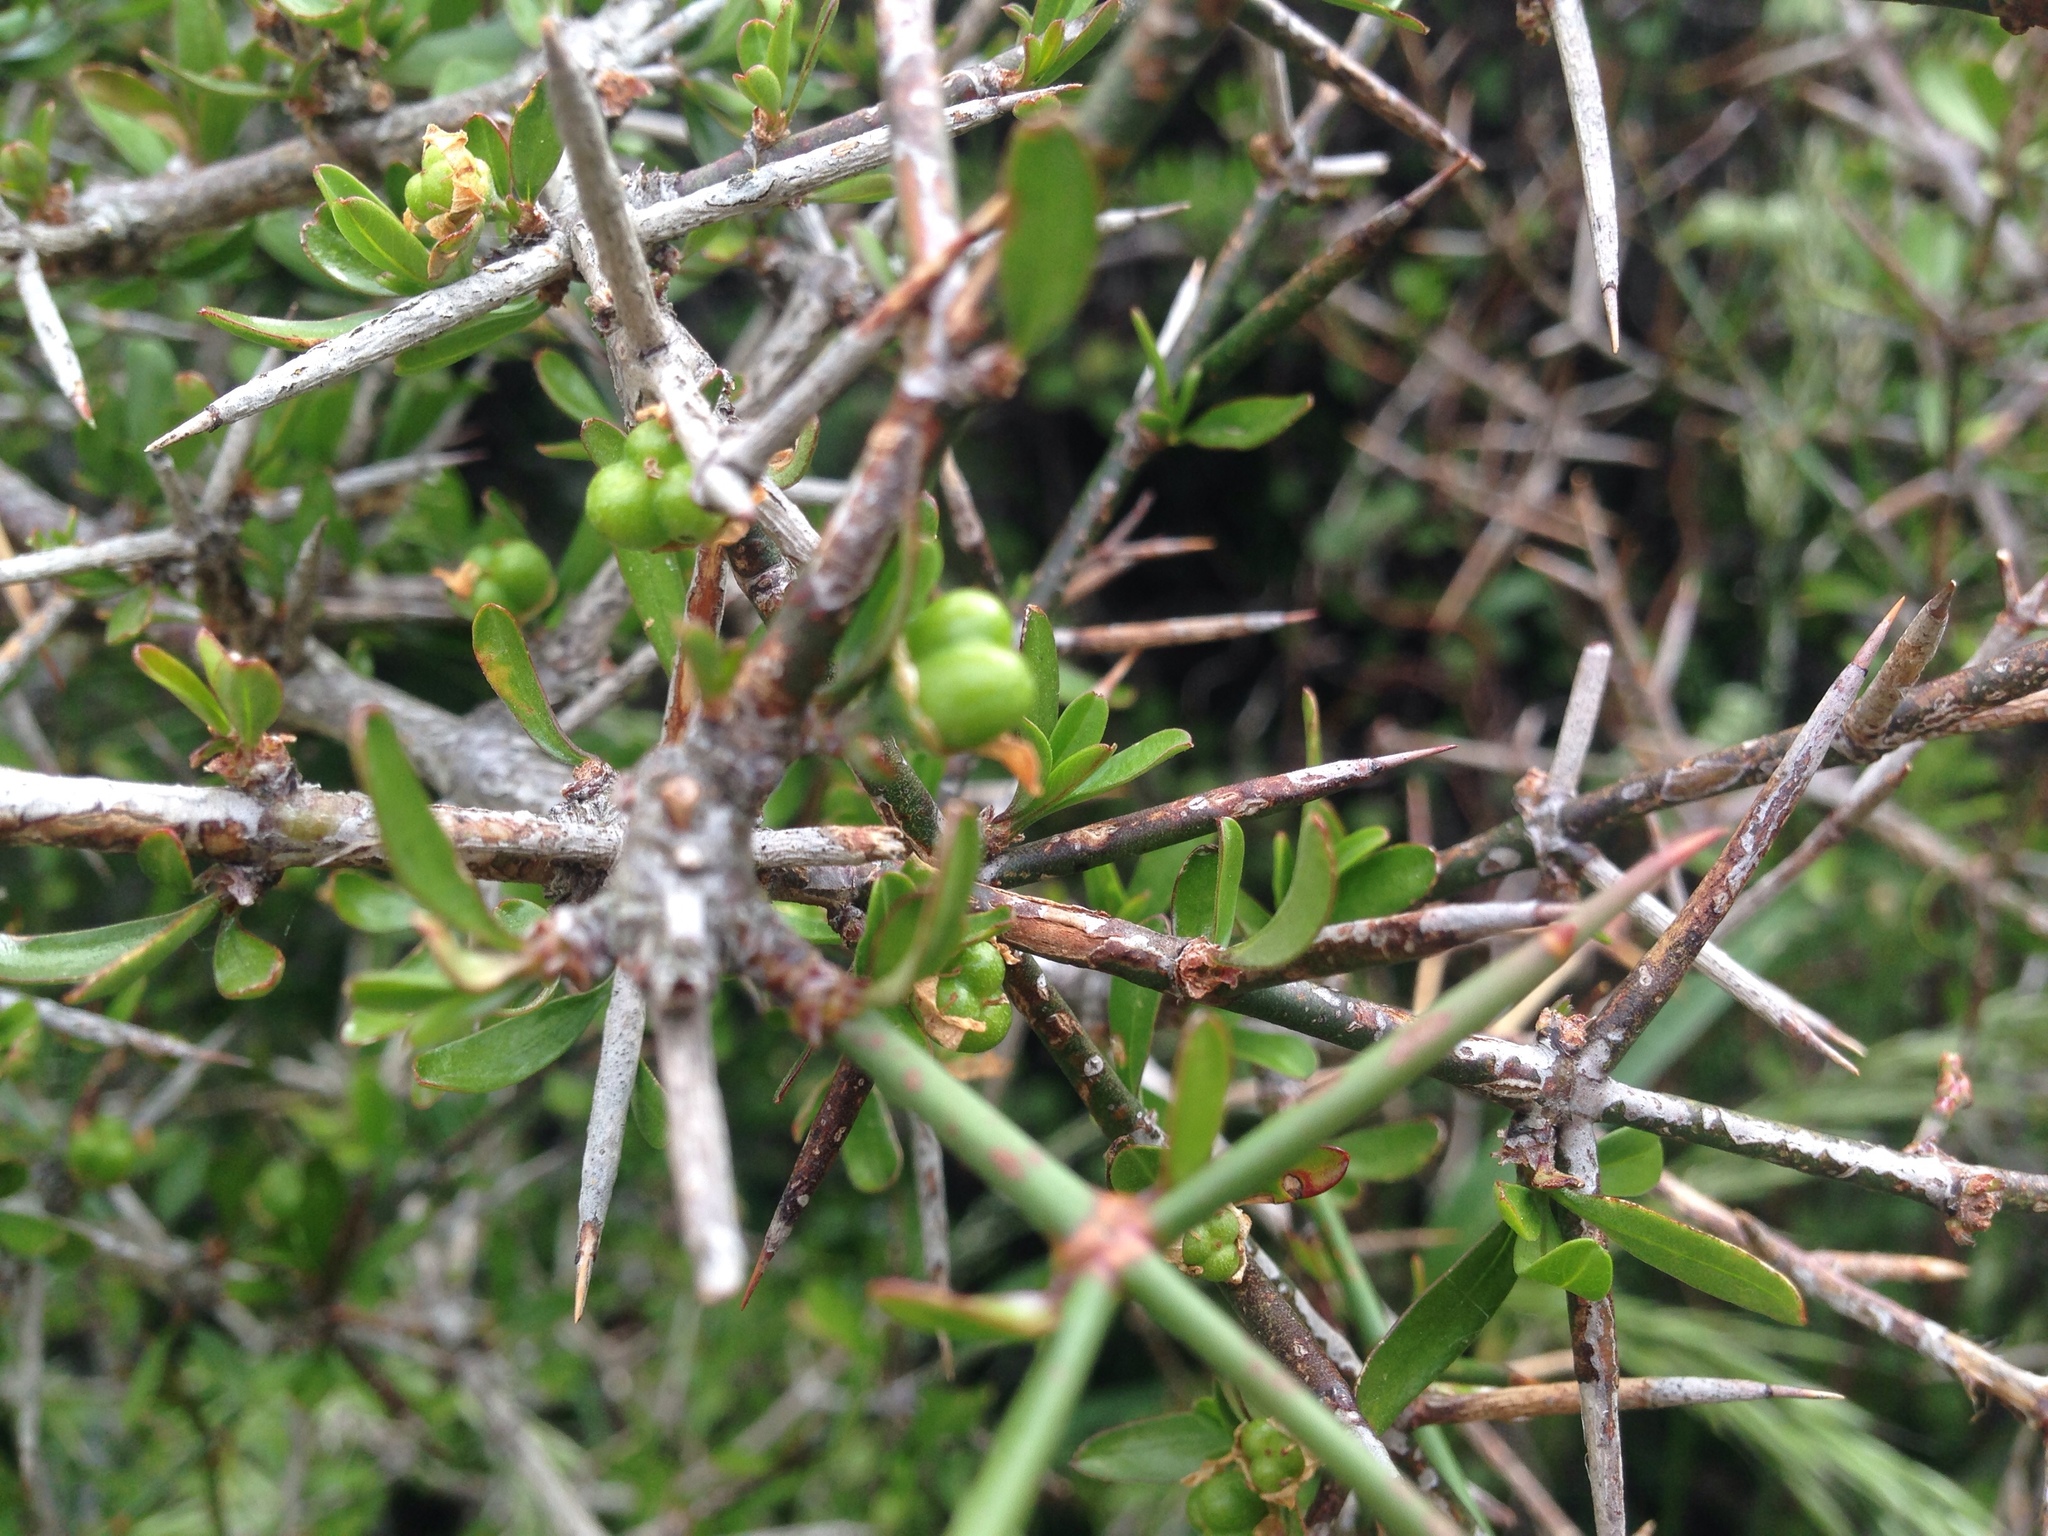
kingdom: Plantae
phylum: Tracheophyta
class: Magnoliopsida
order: Rosales
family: Rhamnaceae
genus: Discaria
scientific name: Discaria toumatou
